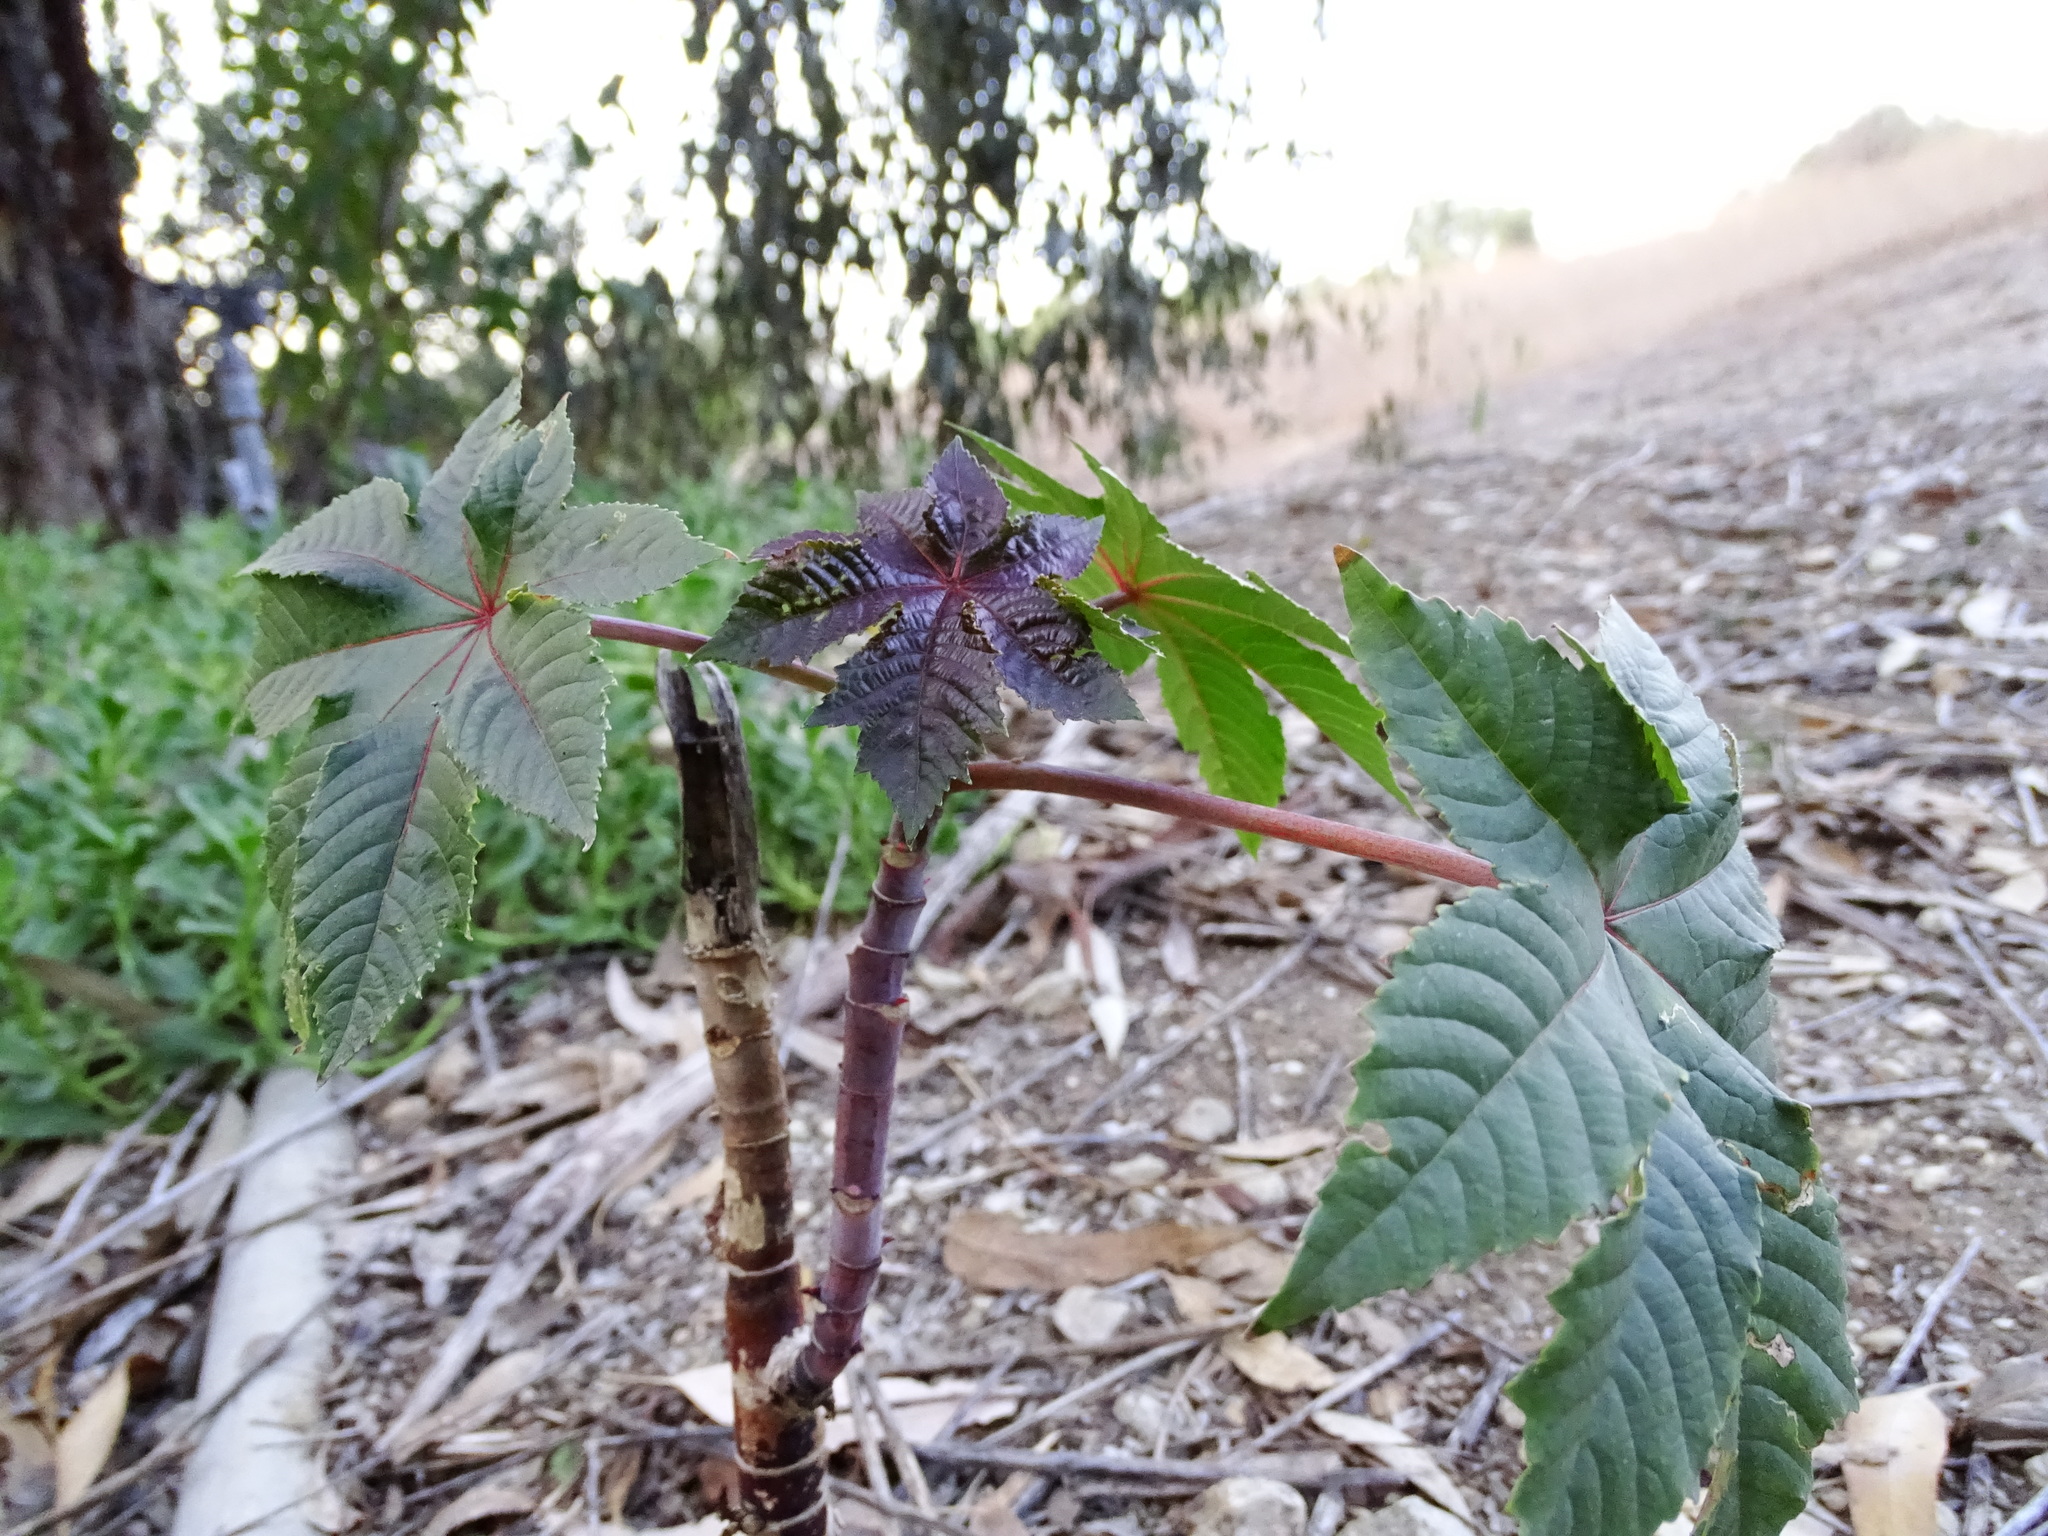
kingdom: Plantae
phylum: Tracheophyta
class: Magnoliopsida
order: Malpighiales
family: Euphorbiaceae
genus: Ricinus
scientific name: Ricinus communis
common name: Castor-oil-plant
